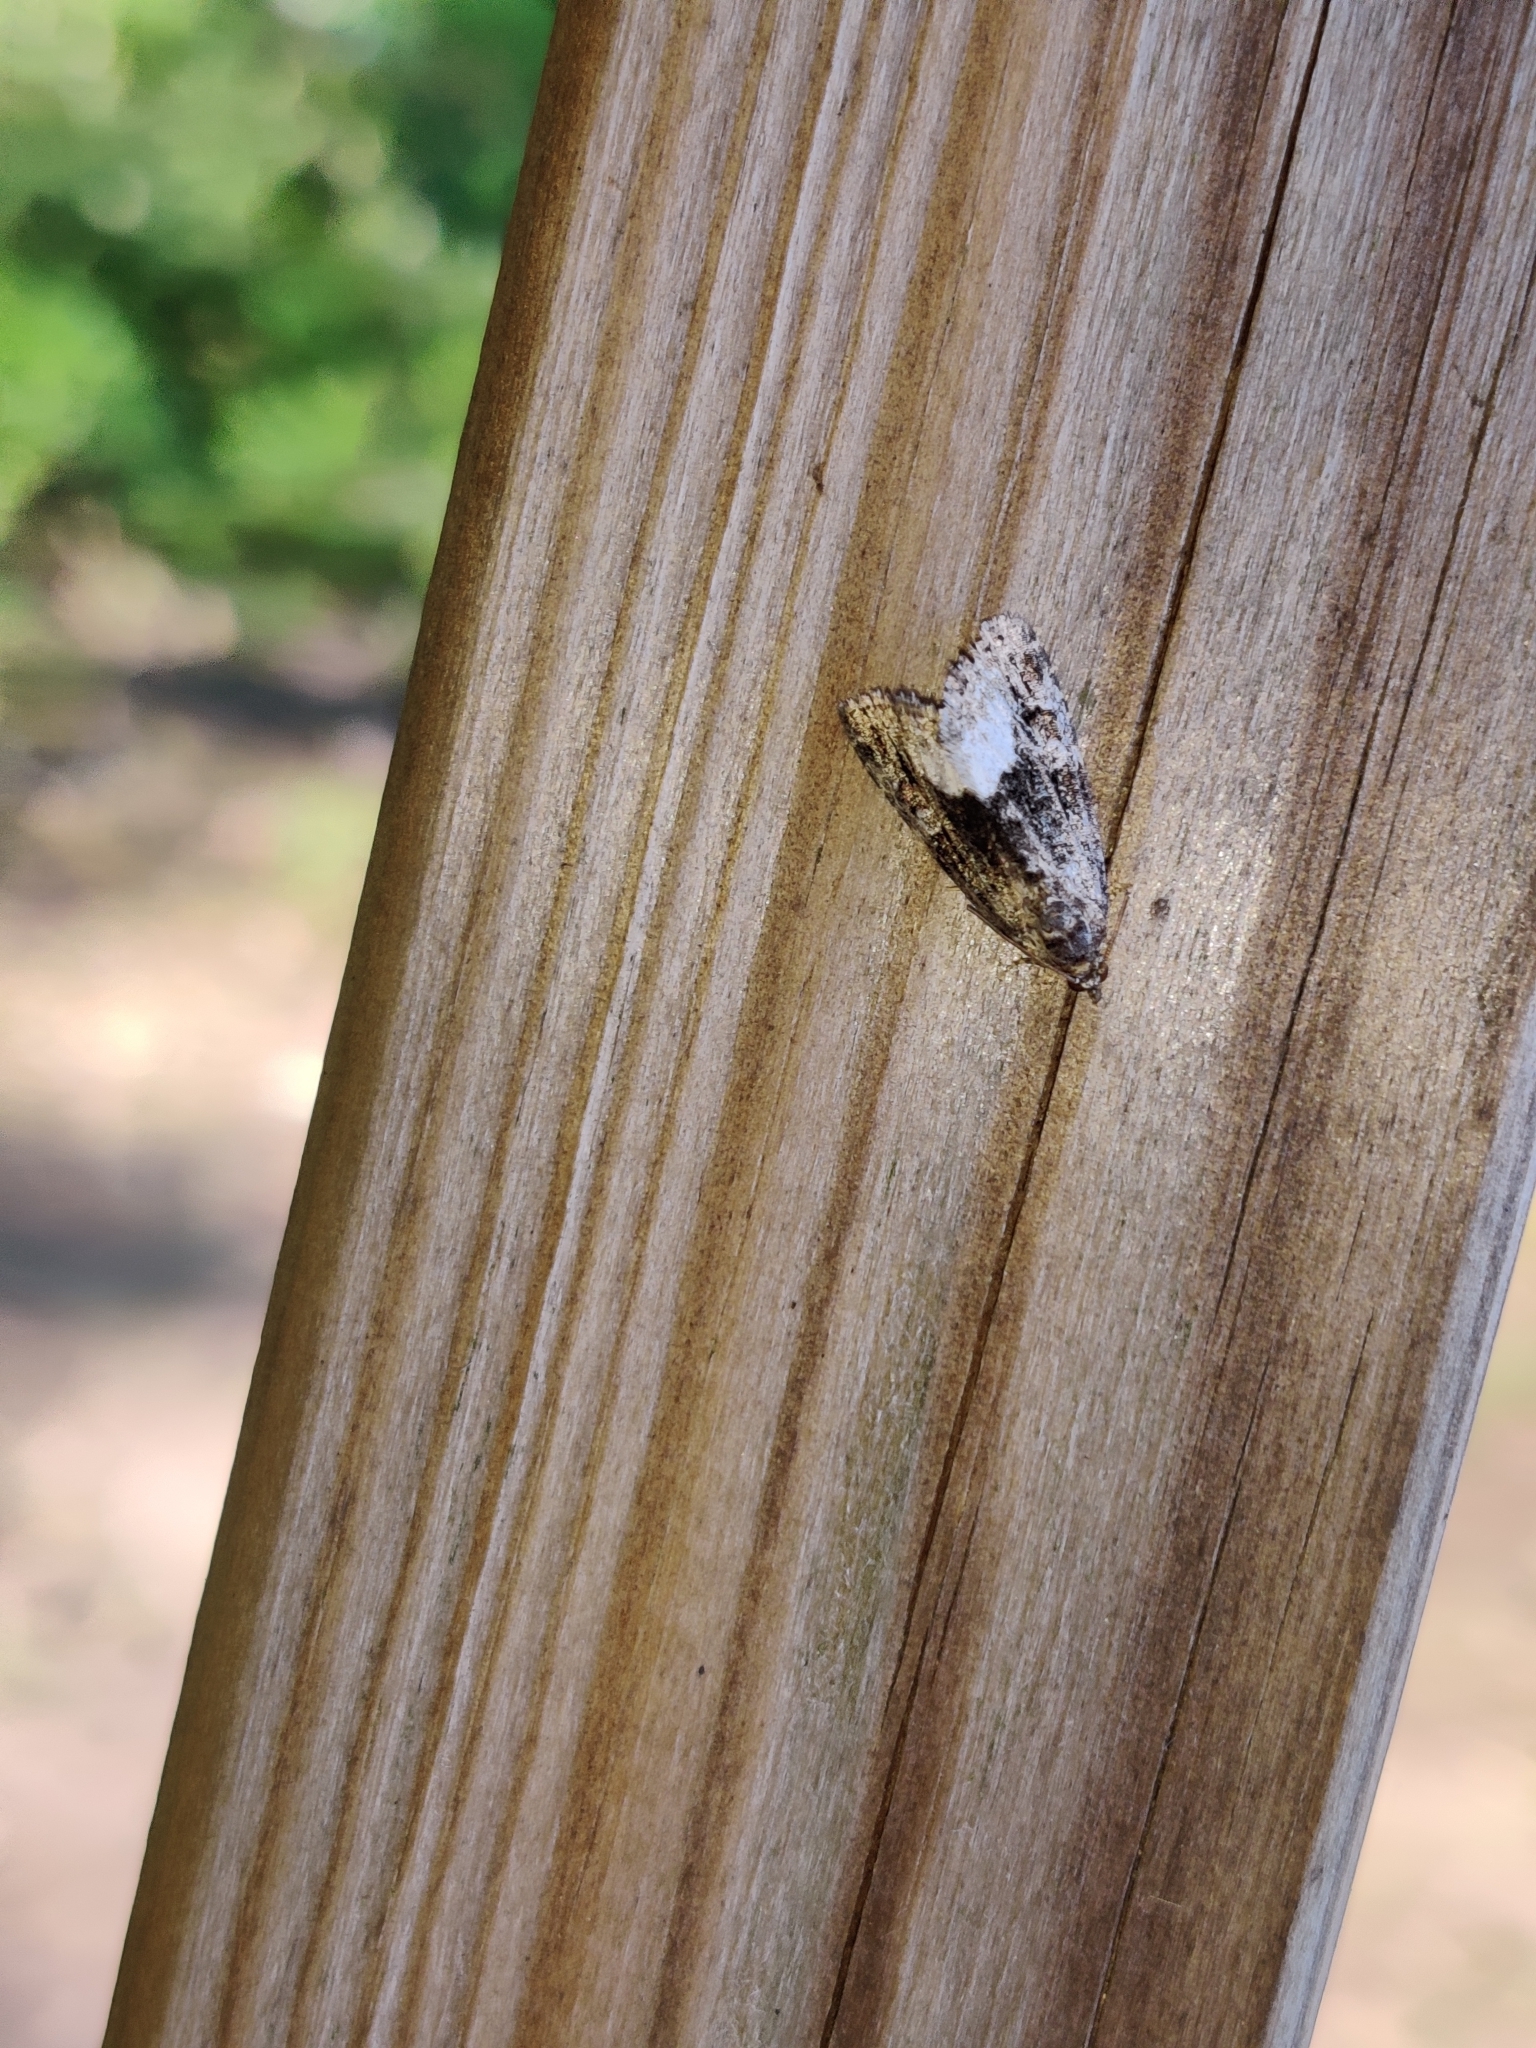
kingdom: Animalia
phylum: Arthropoda
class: Insecta
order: Lepidoptera
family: Noctuidae
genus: Deltote
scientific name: Deltote pygarga
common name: Marbled white spot
